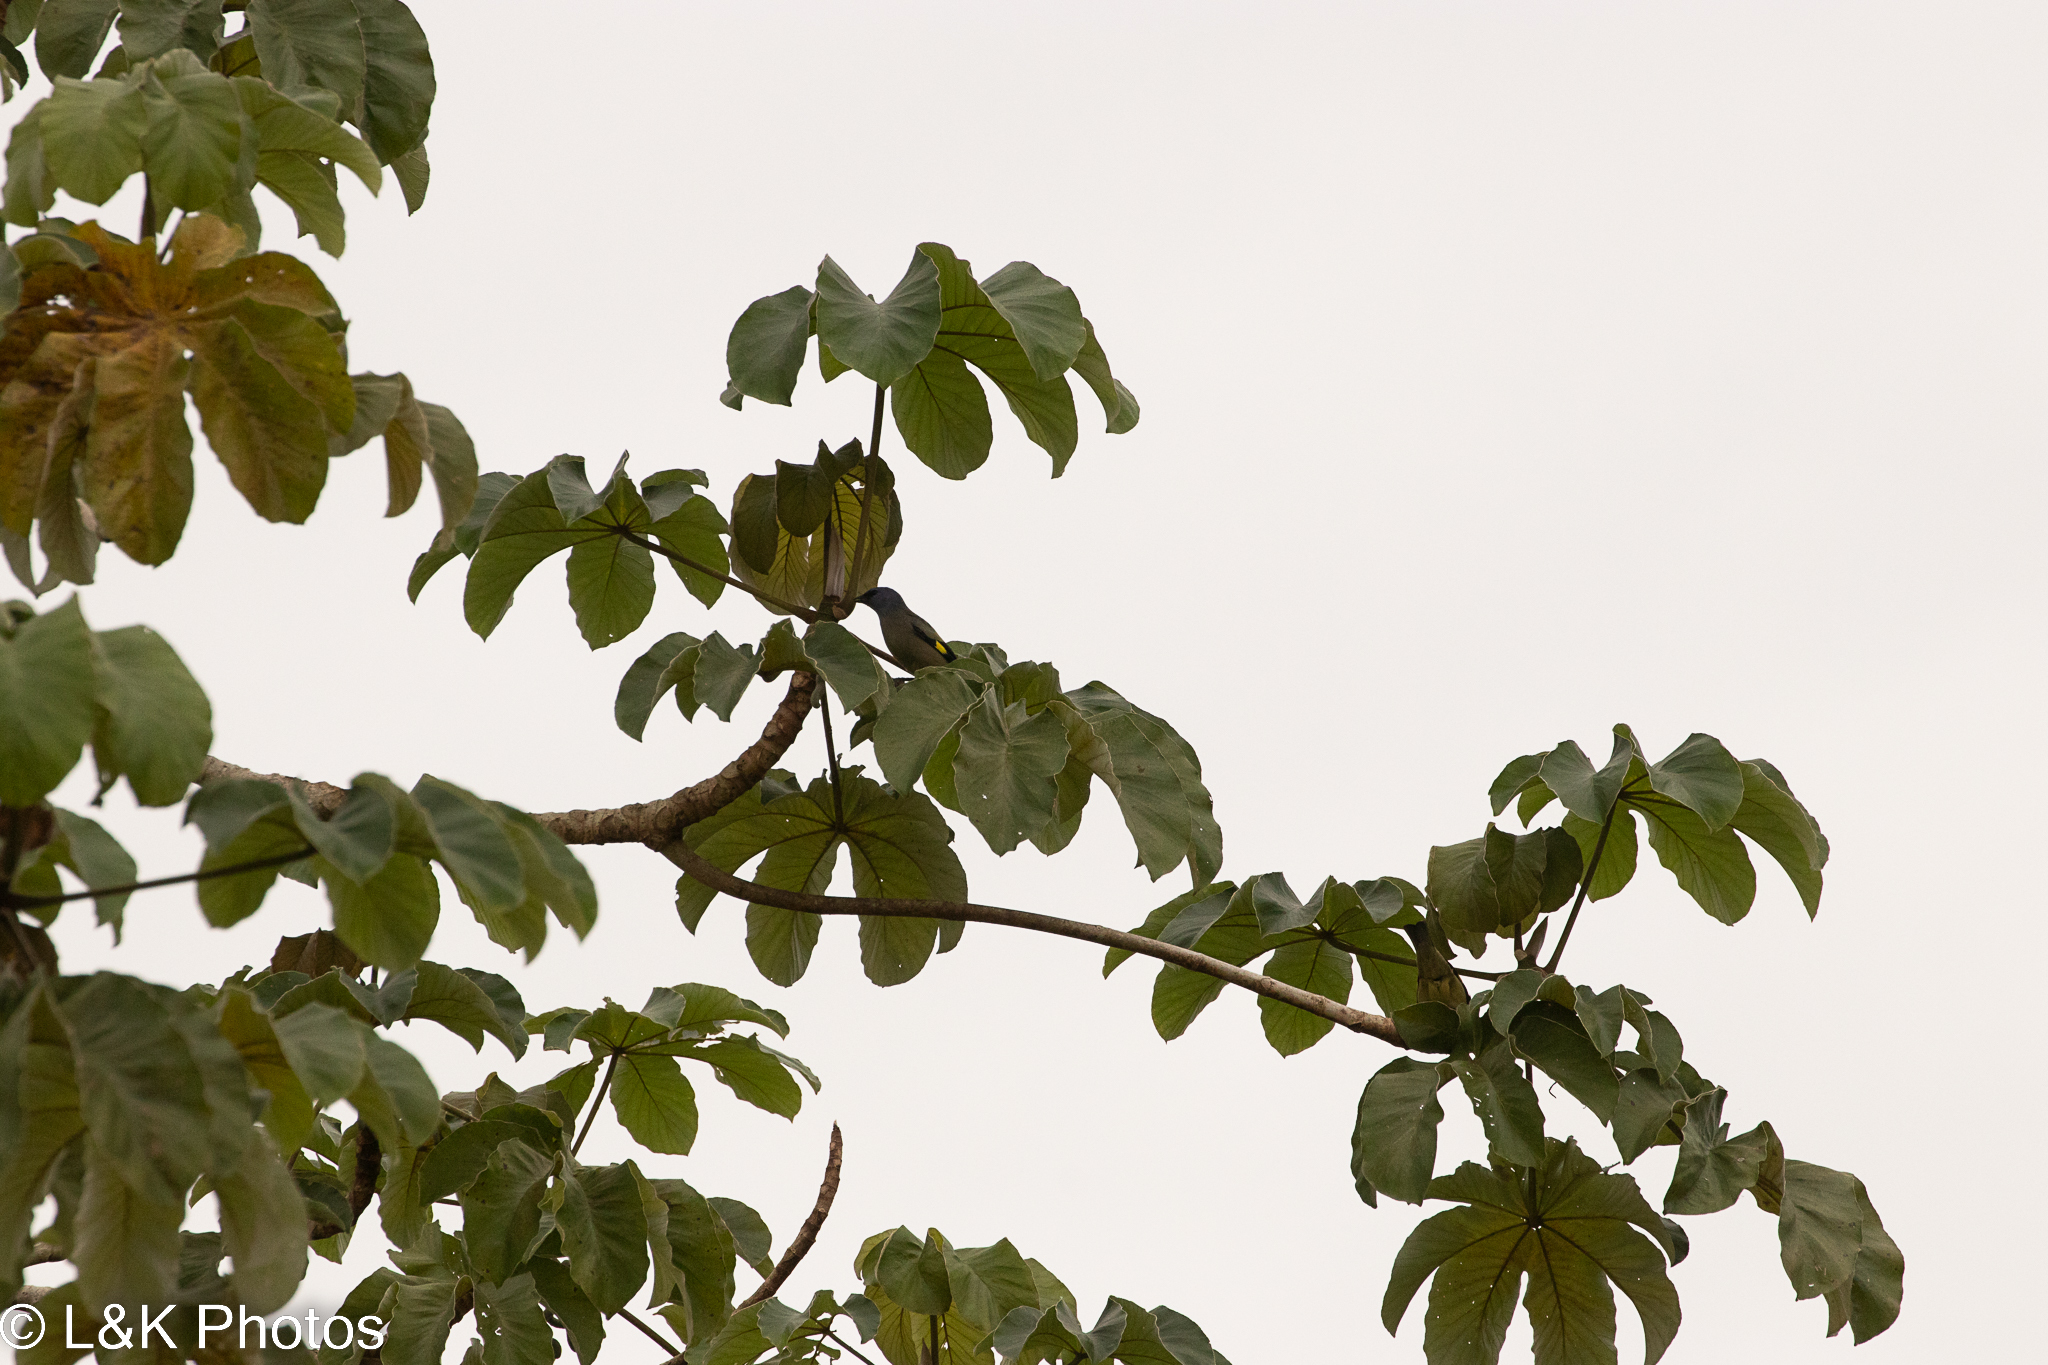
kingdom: Animalia
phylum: Chordata
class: Aves
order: Passeriformes
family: Thraupidae
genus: Thraupis
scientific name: Thraupis abbas
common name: Yellow-winged tanager
